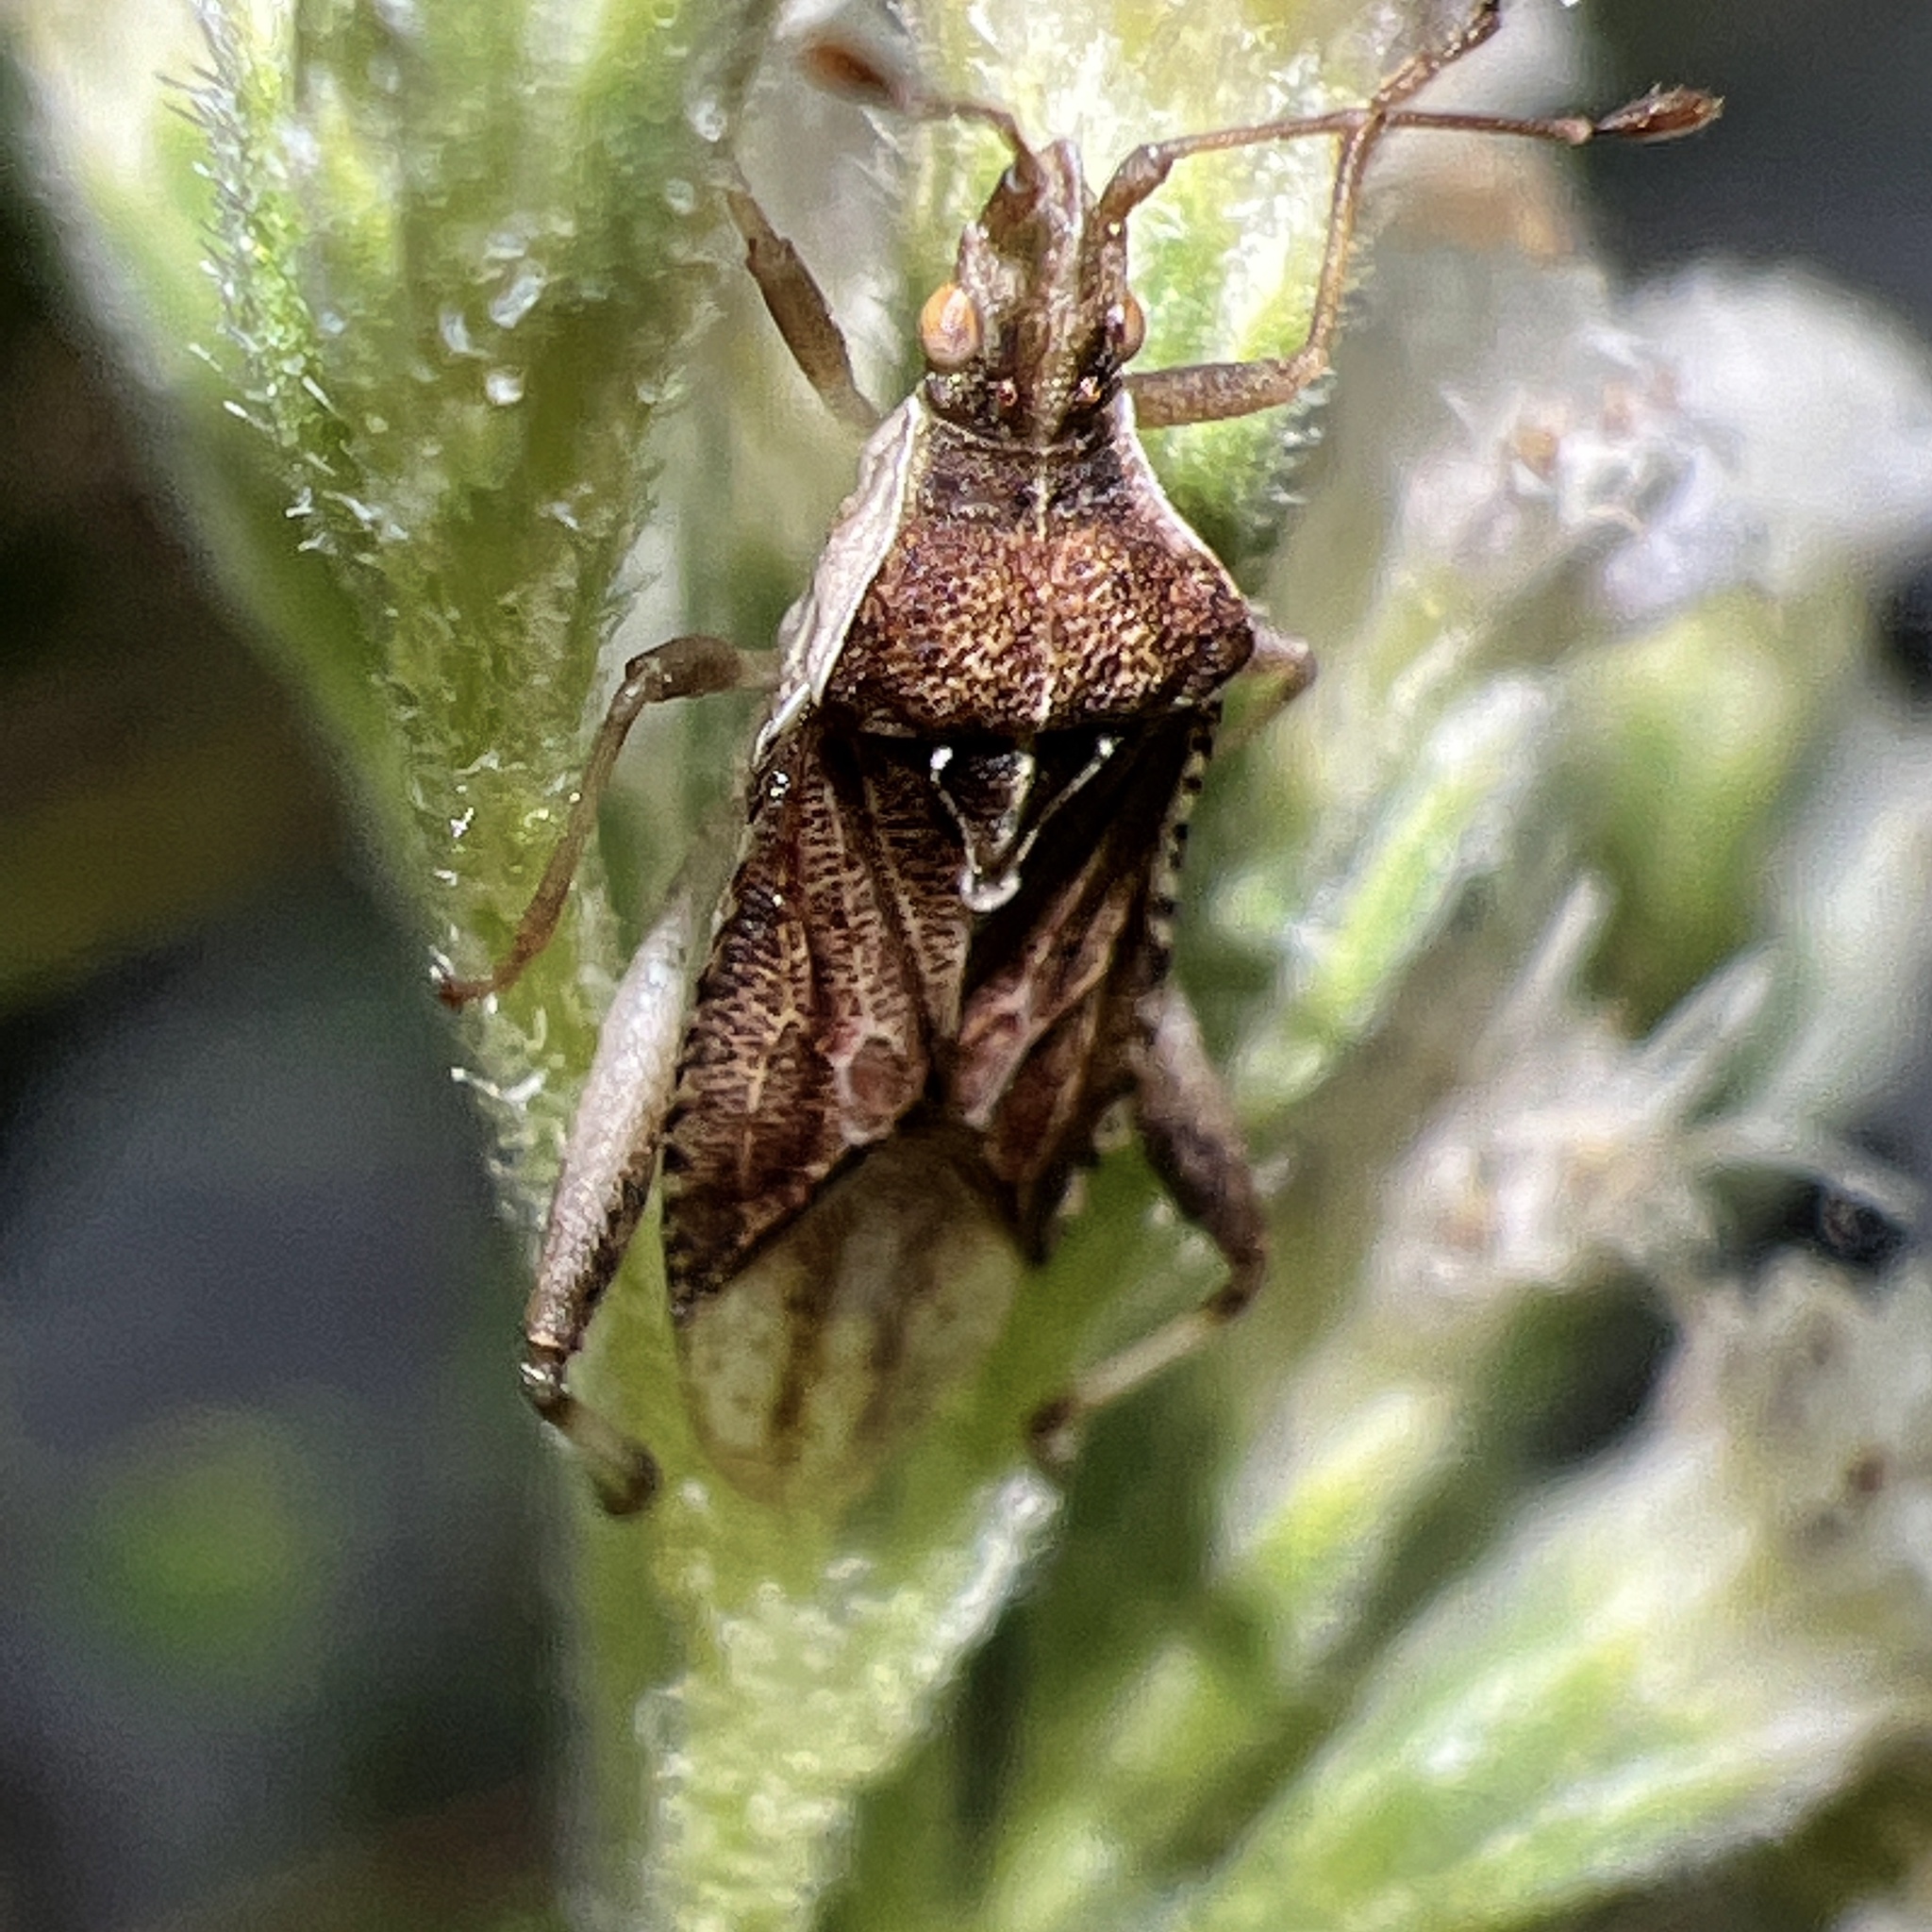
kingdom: Animalia
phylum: Arthropoda
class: Insecta
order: Hemiptera
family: Rhopalidae
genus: Harmostes
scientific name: Harmostes fraterculus
